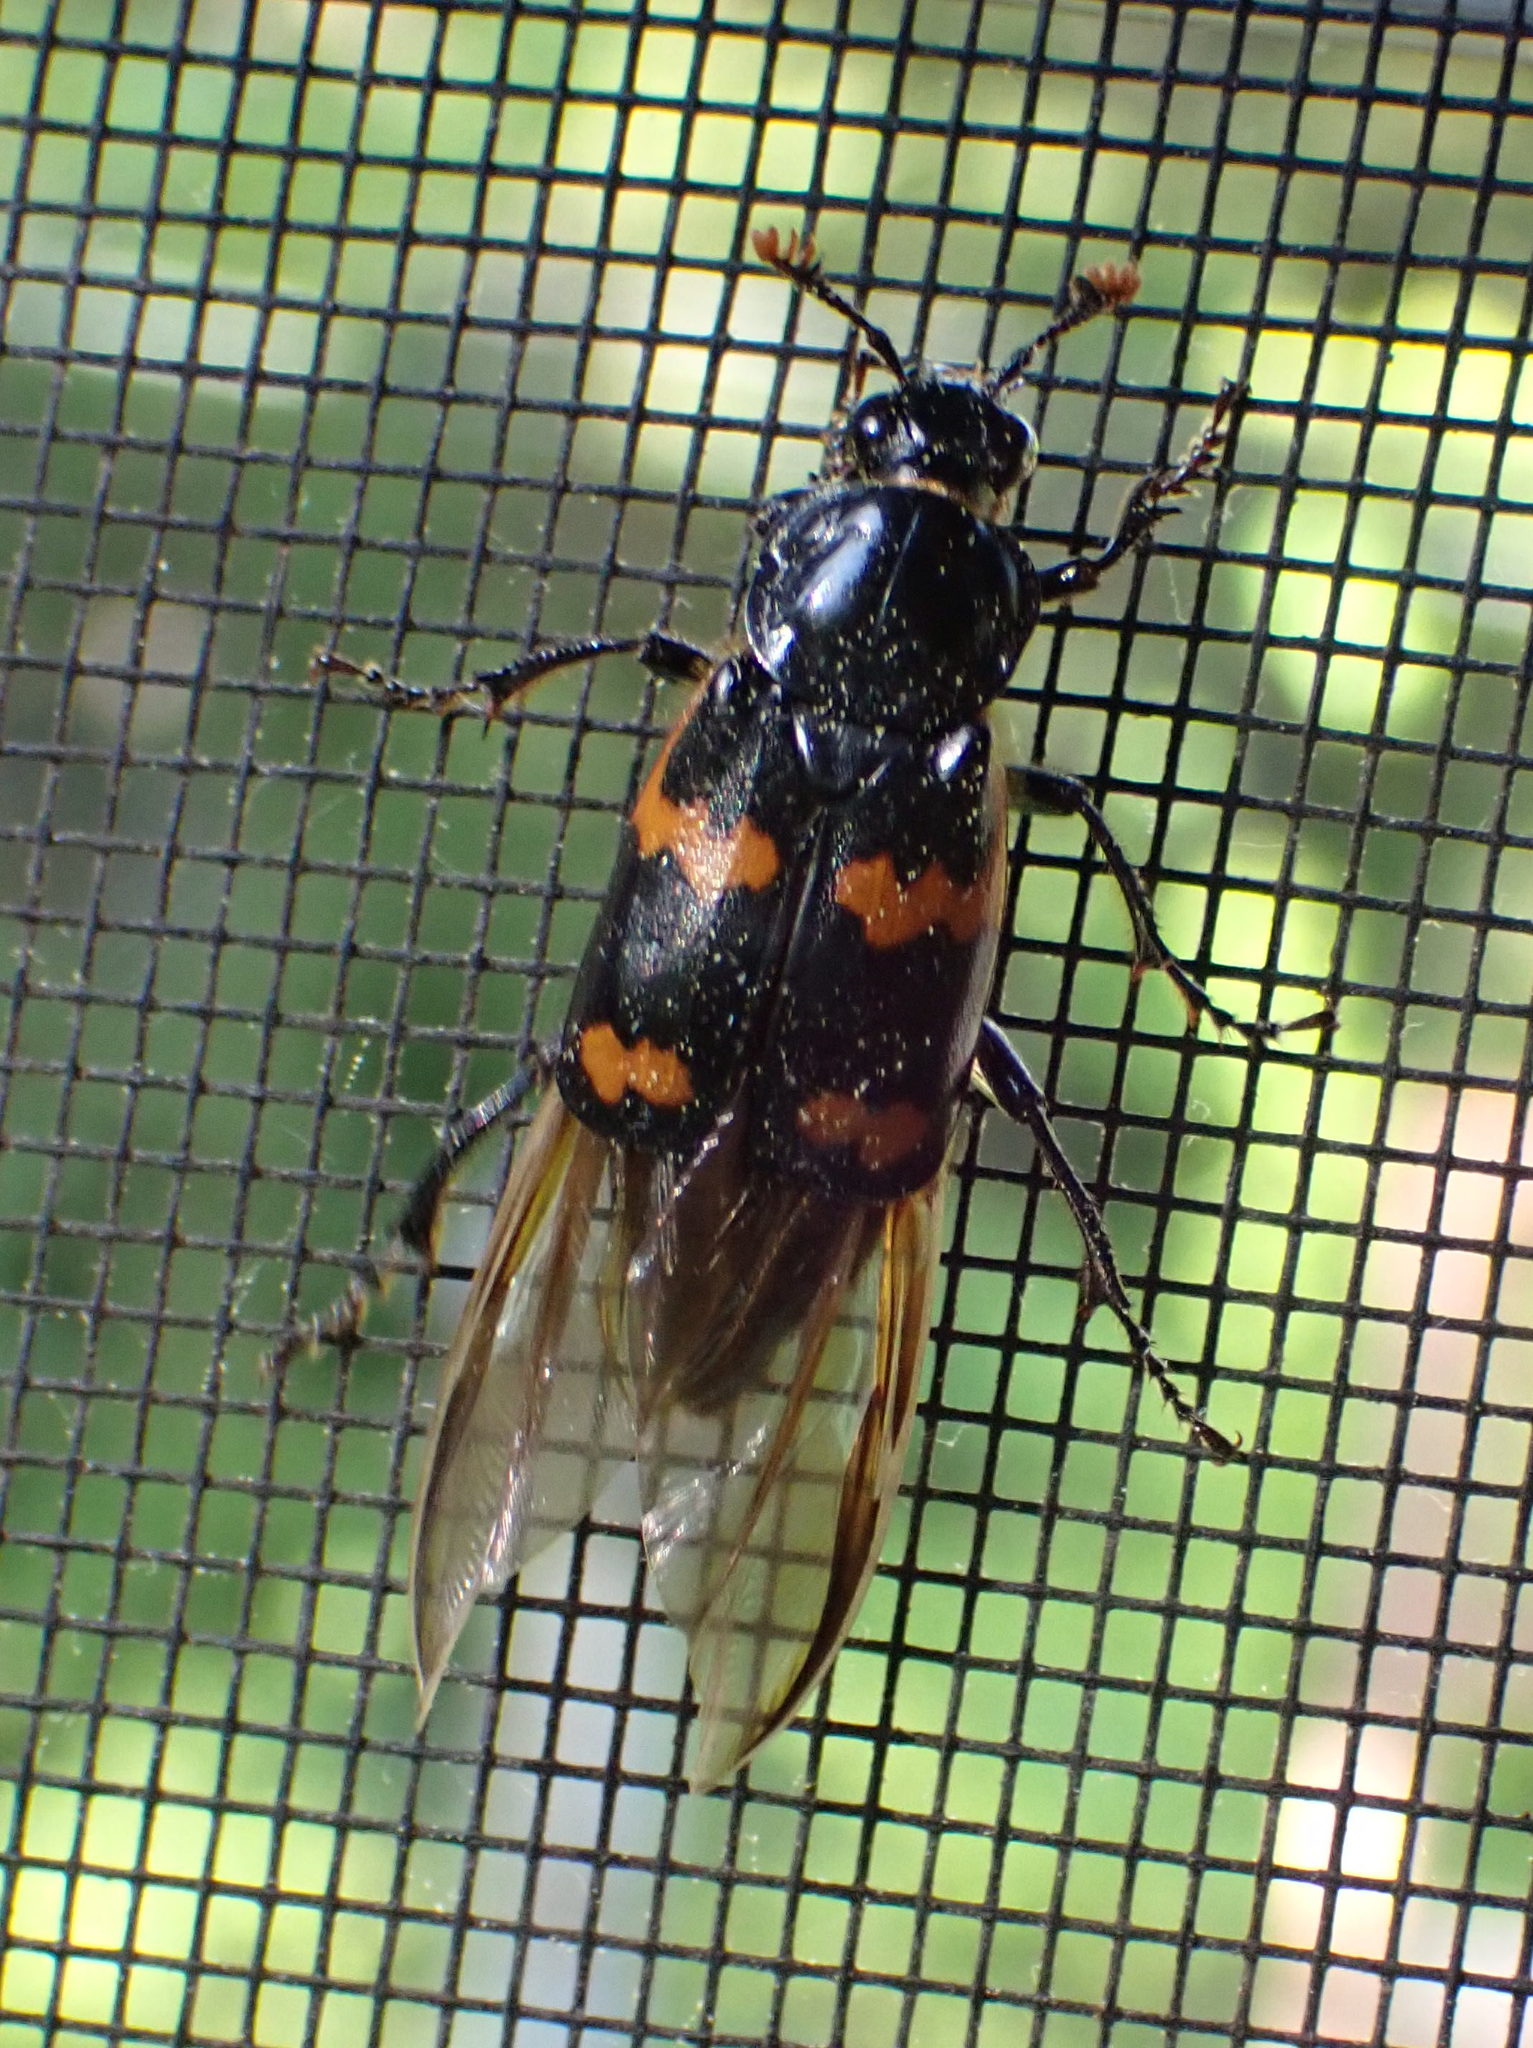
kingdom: Animalia
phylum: Arthropoda
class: Insecta
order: Coleoptera
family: Staphylinidae
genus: Nicrophorus
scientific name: Nicrophorus sayi
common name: Say's burying beetle
